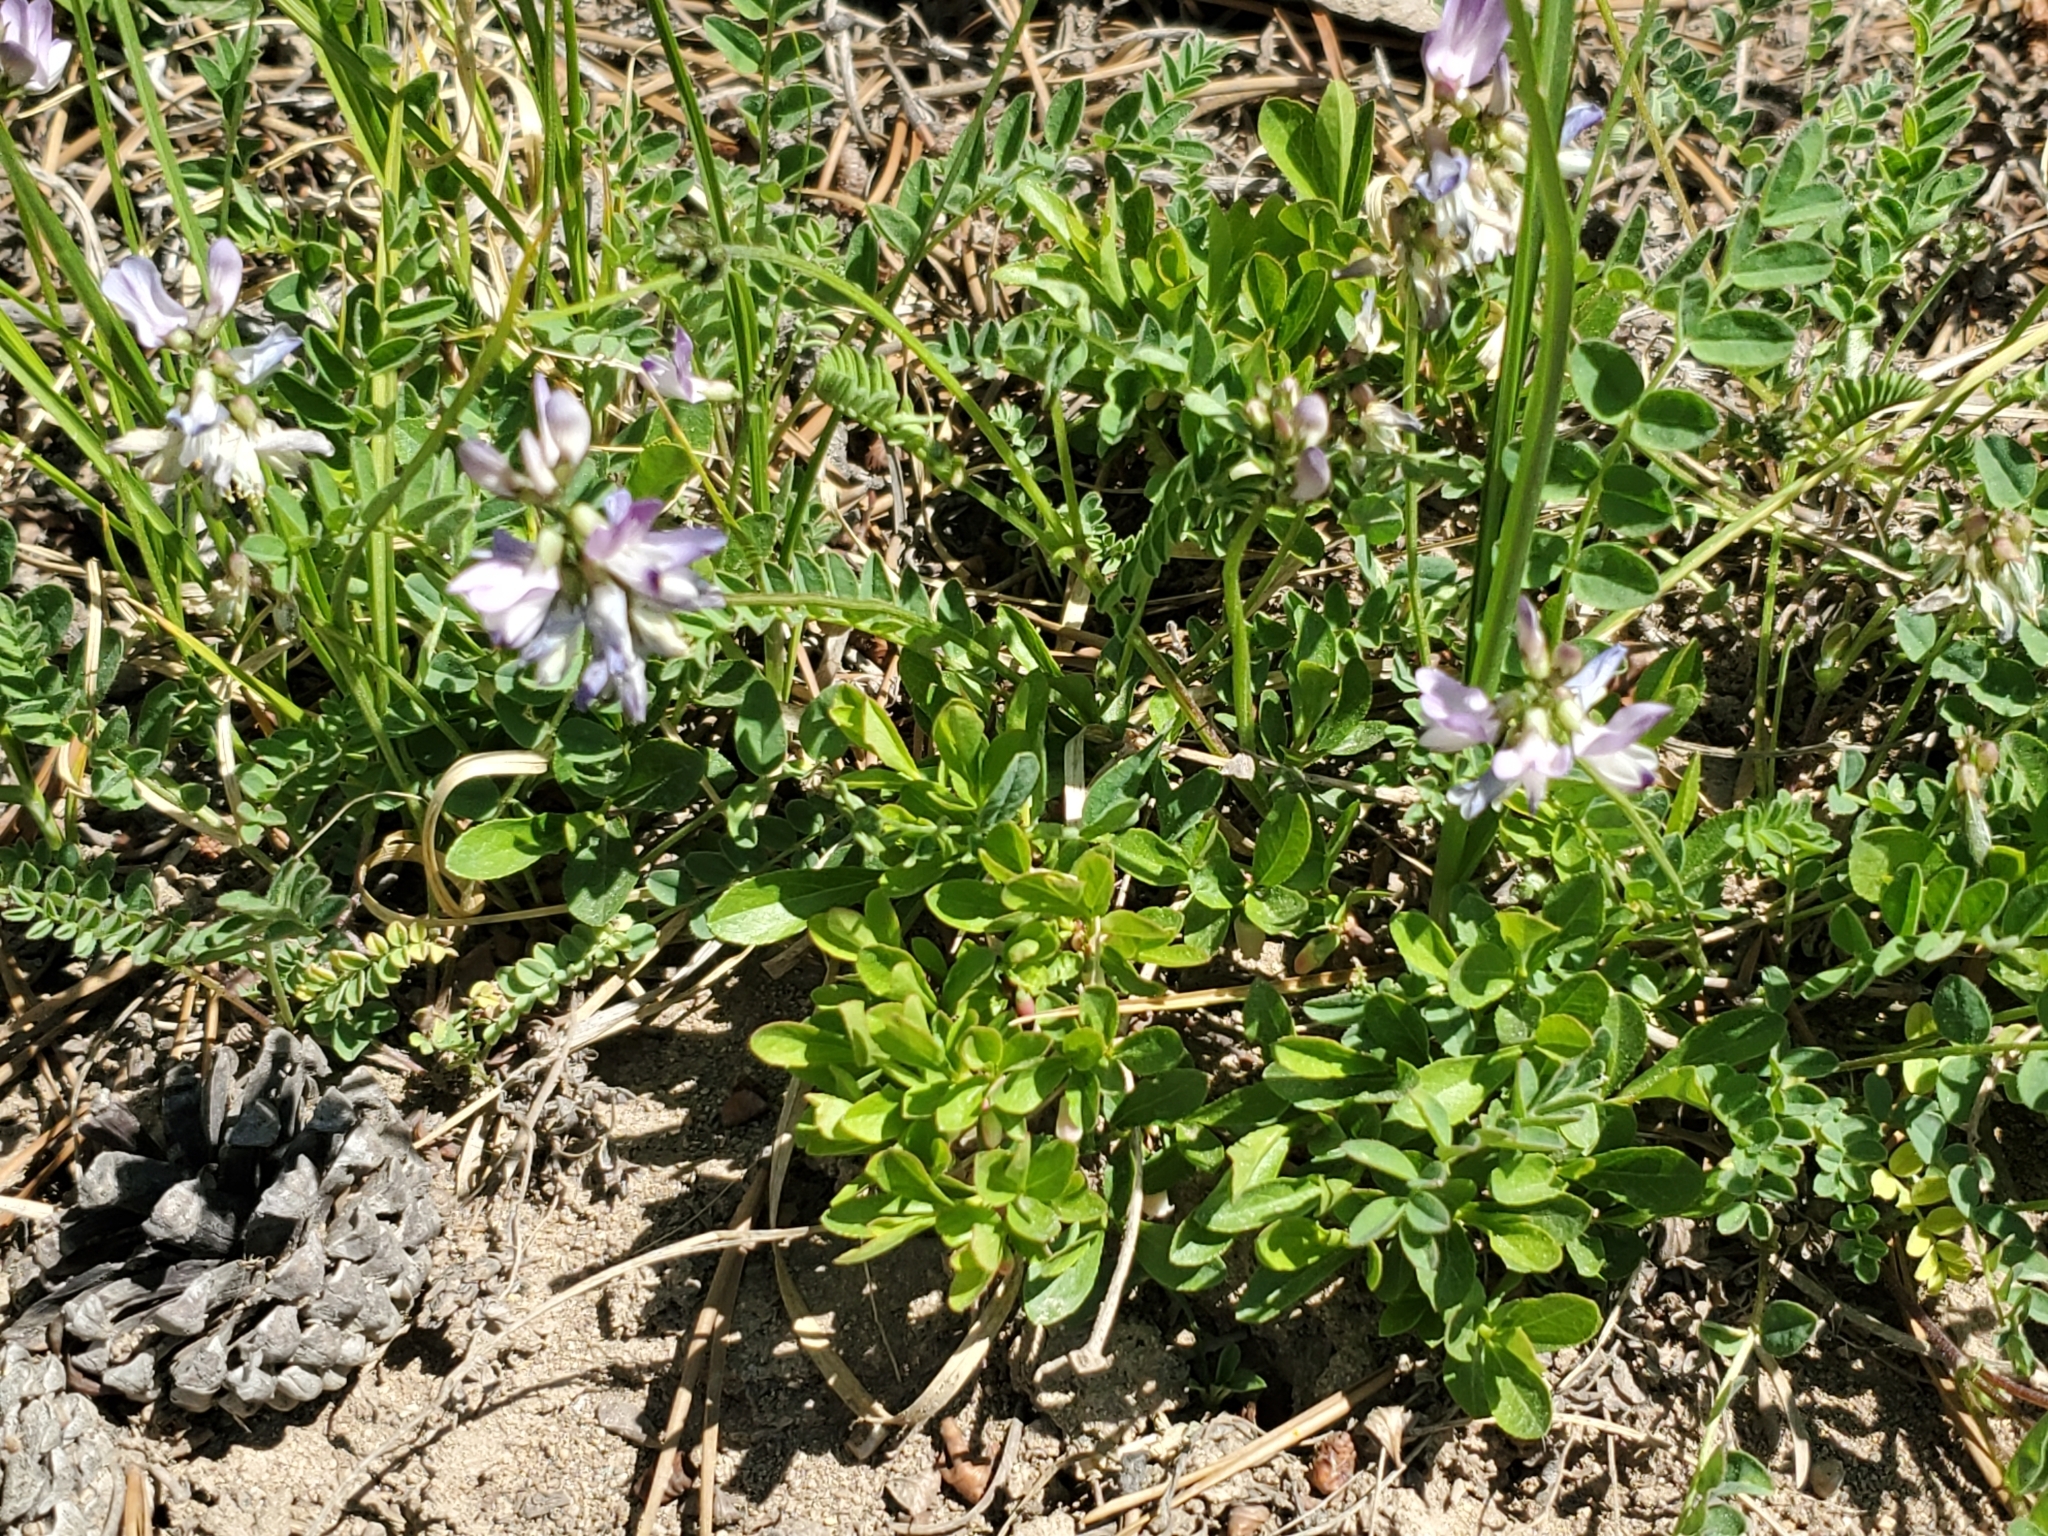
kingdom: Plantae
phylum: Tracheophyta
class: Magnoliopsida
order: Fabales
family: Fabaceae
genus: Astragalus
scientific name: Astragalus alpinus
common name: Alpine milk-vetch
